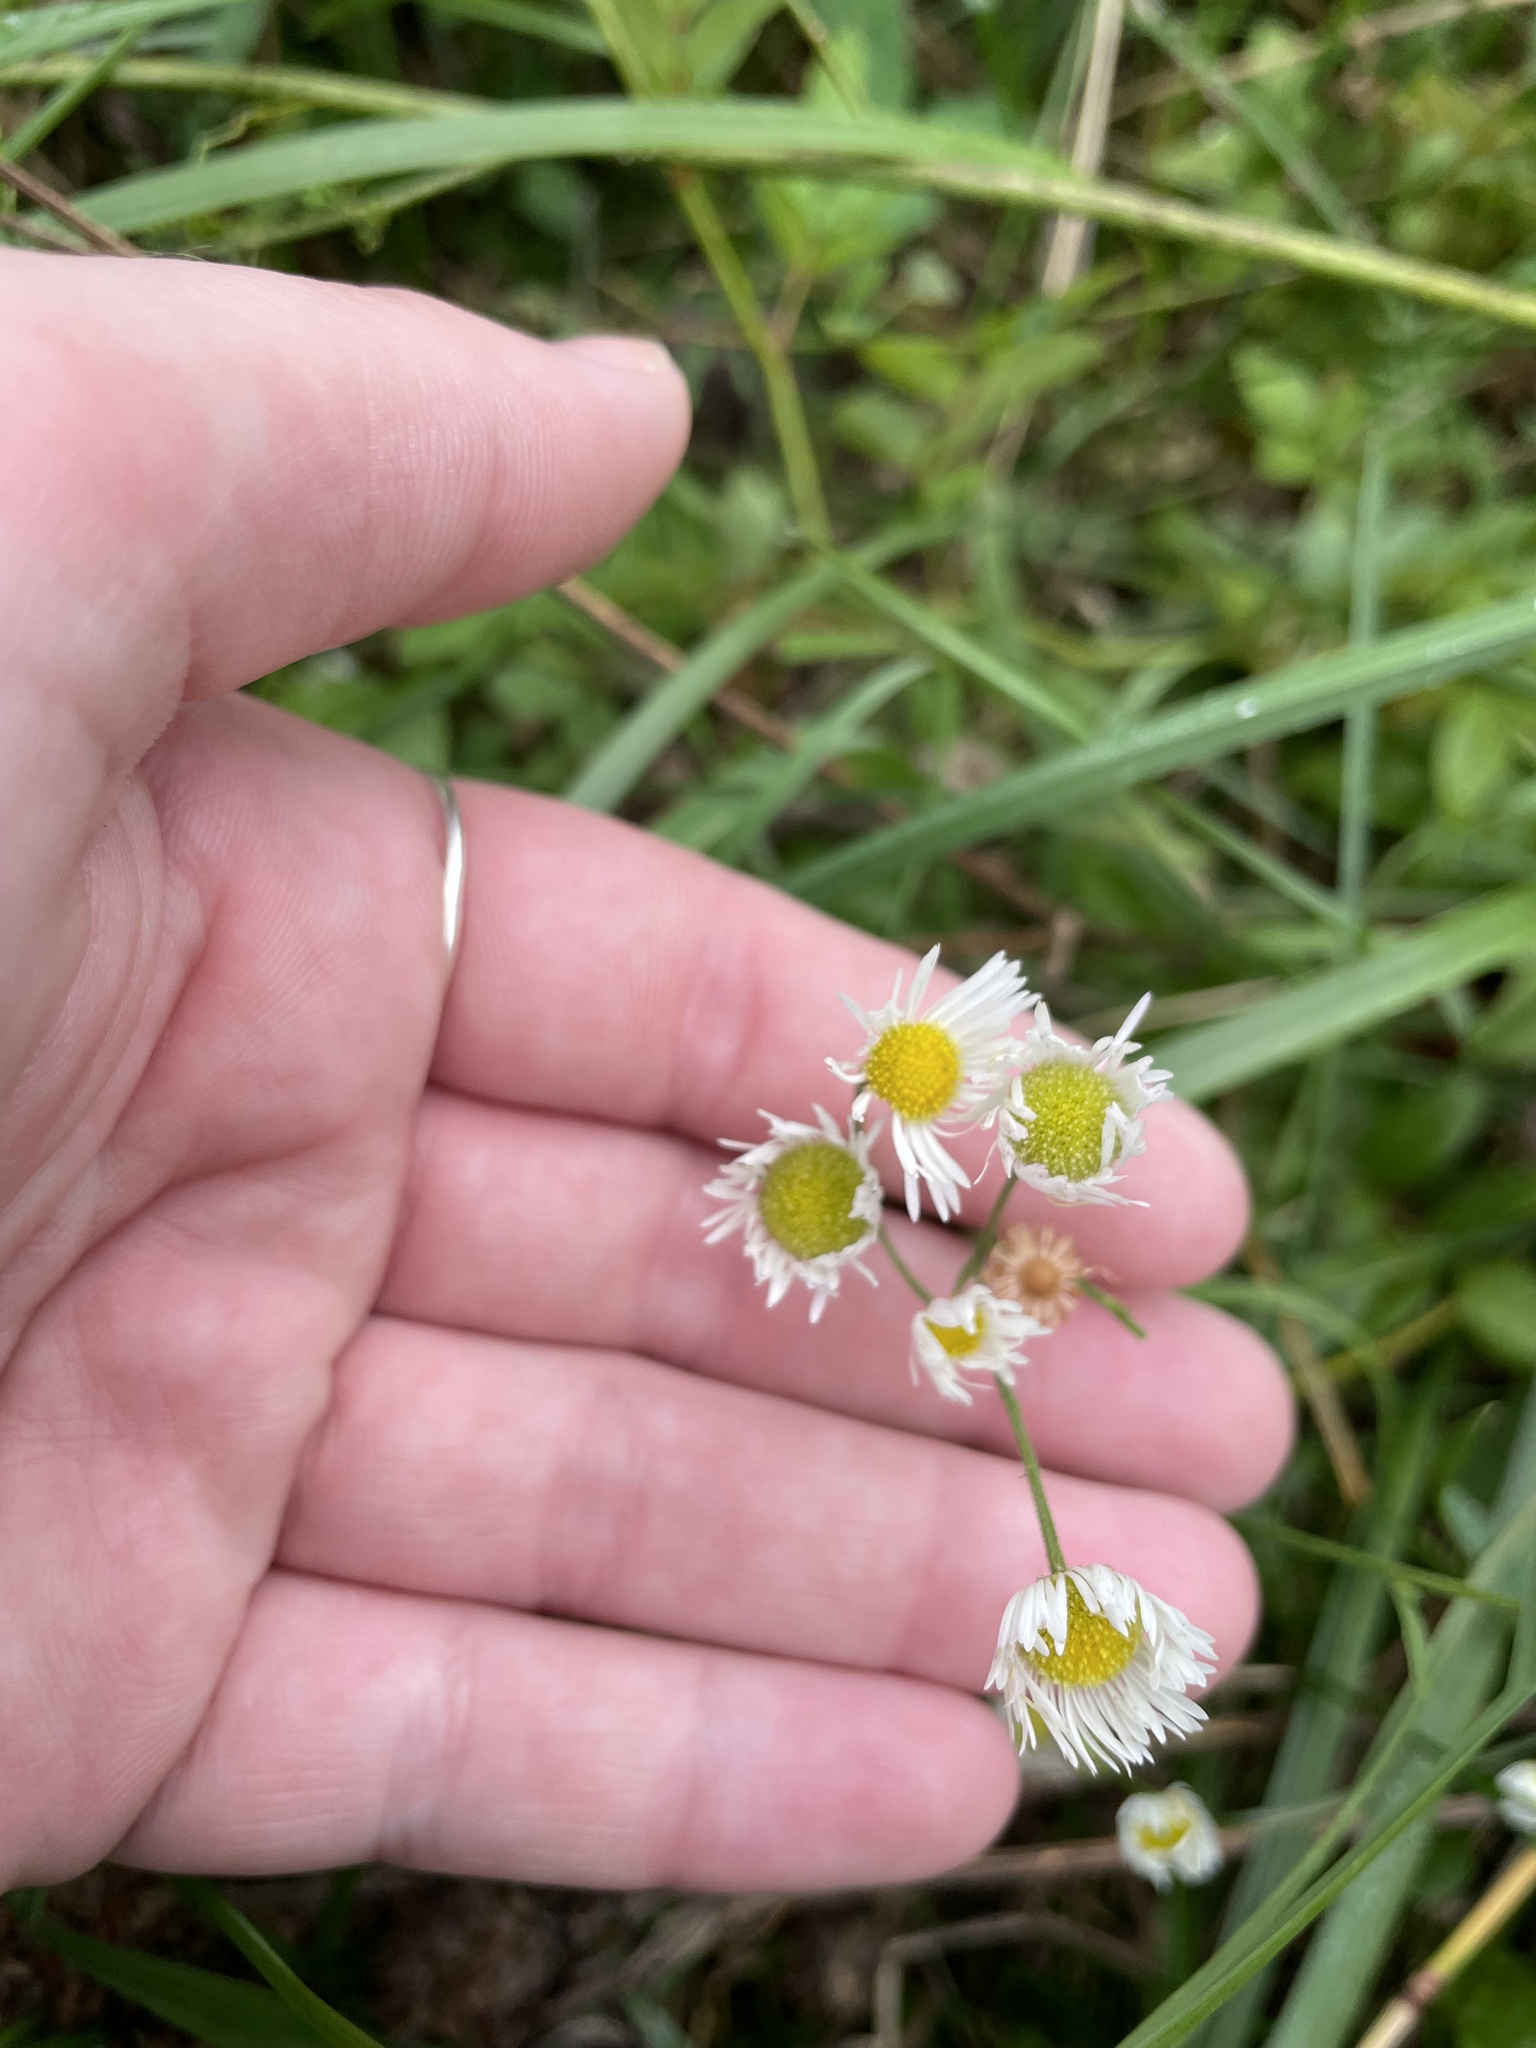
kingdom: Plantae
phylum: Tracheophyta
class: Magnoliopsida
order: Asterales
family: Asteraceae
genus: Erigeron
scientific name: Erigeron strigosus
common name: Common eastern fleabane
